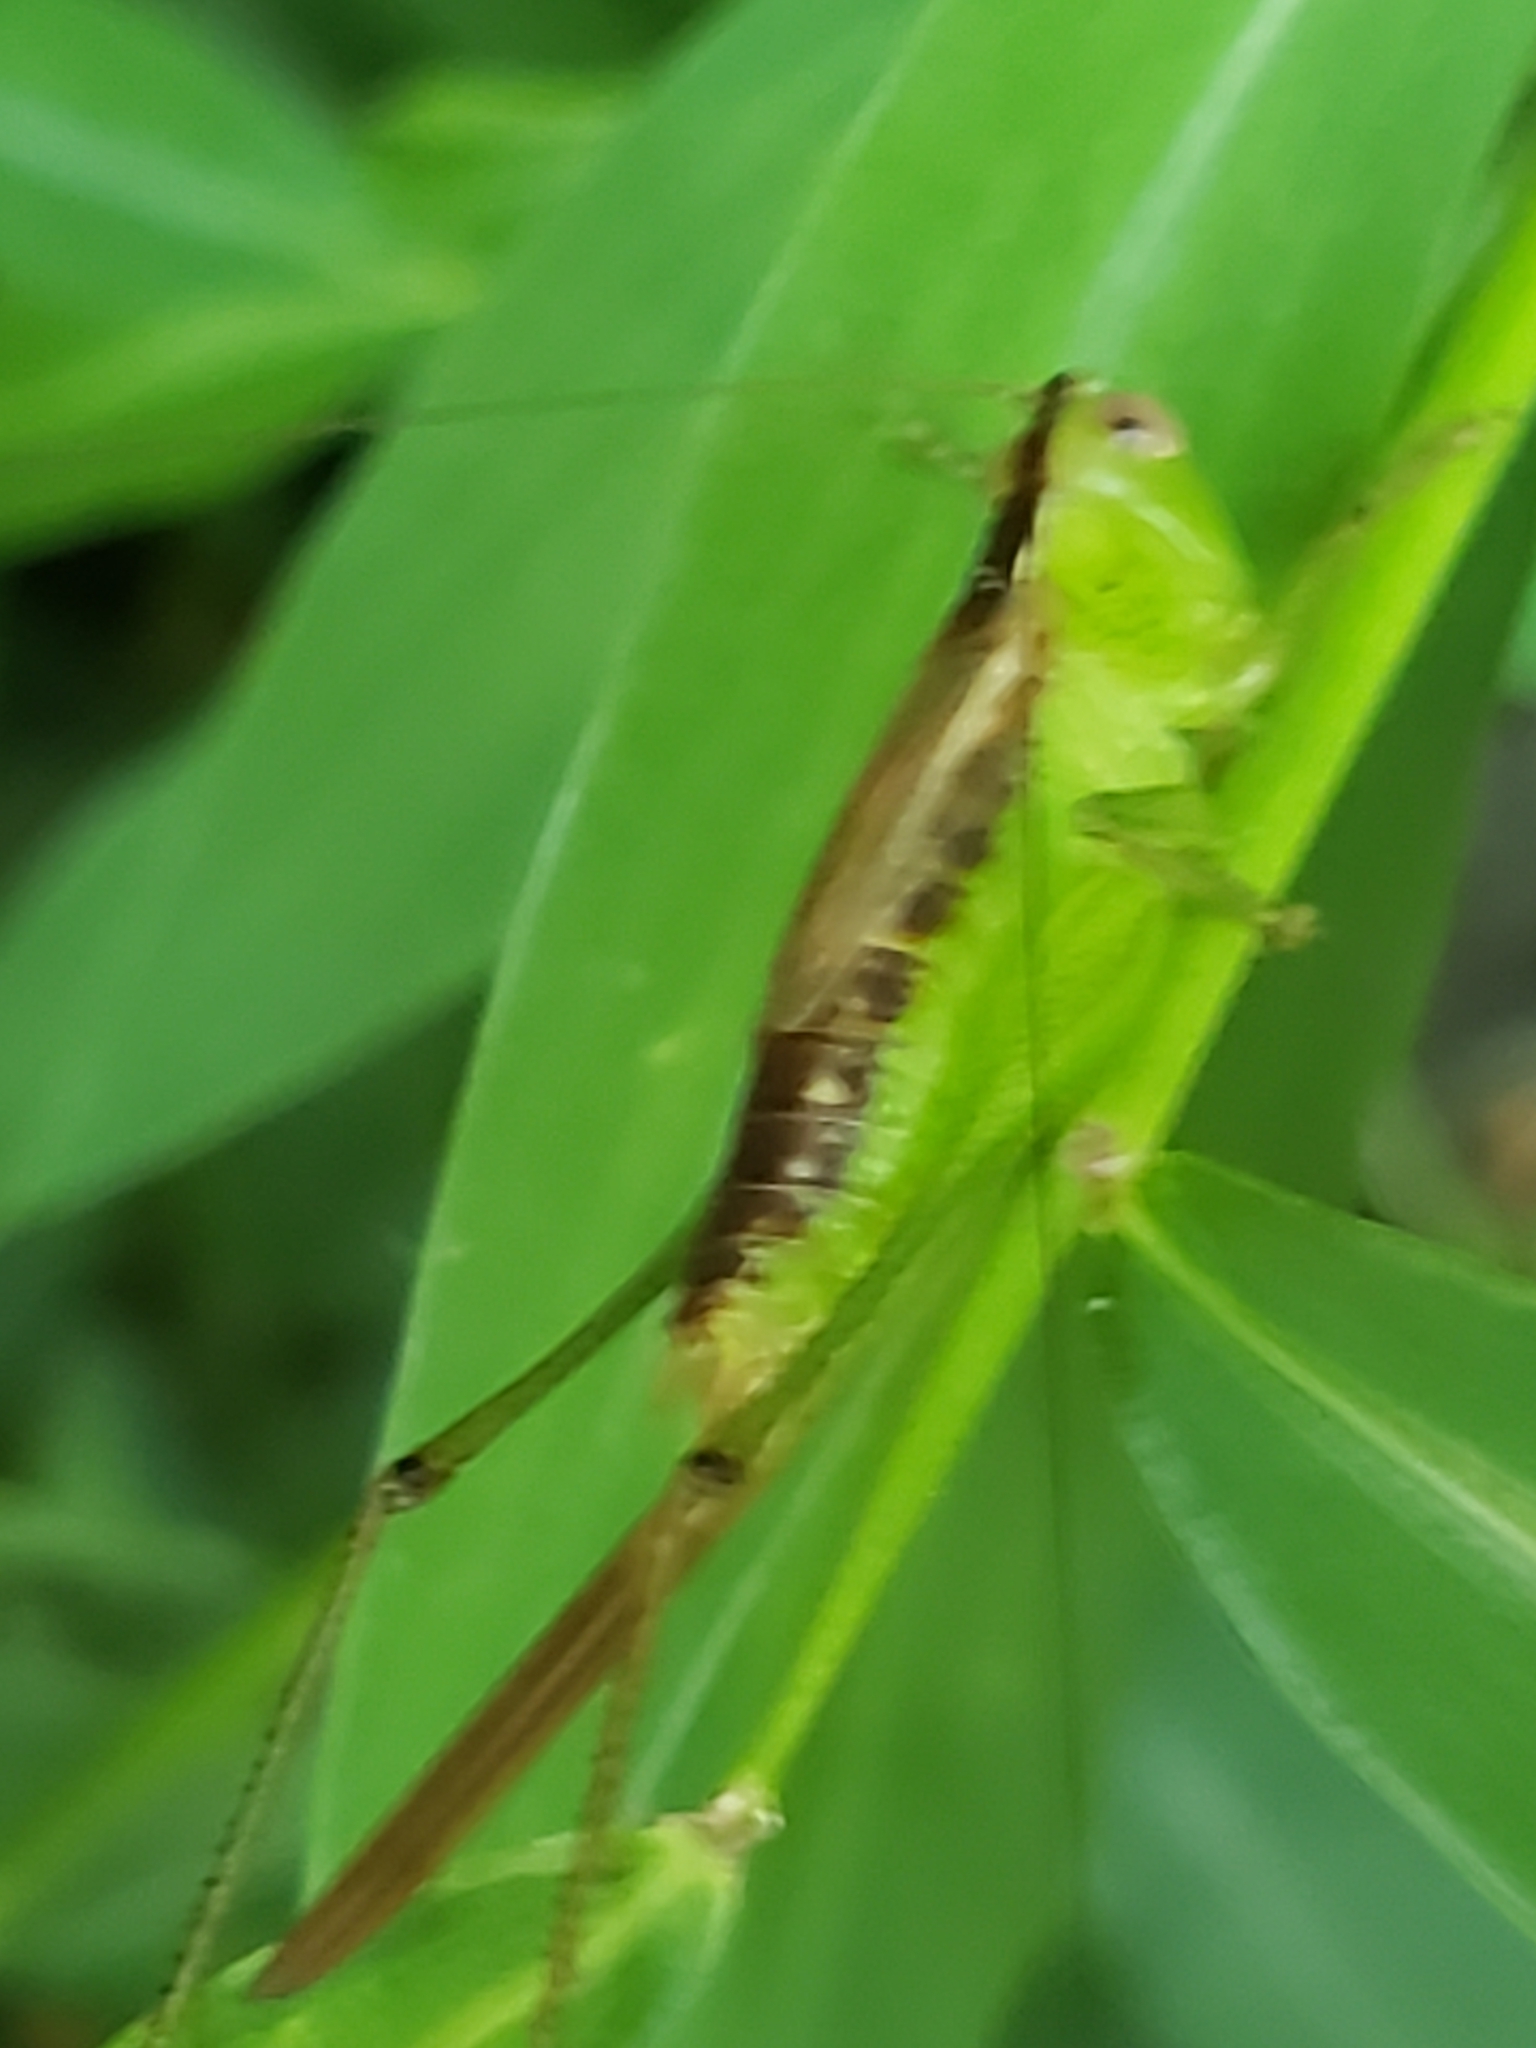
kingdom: Animalia
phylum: Arthropoda
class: Insecta
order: Orthoptera
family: Tettigoniidae
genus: Conocephalus
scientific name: Conocephalus brevipennis
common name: Short-winged meadow katydid
